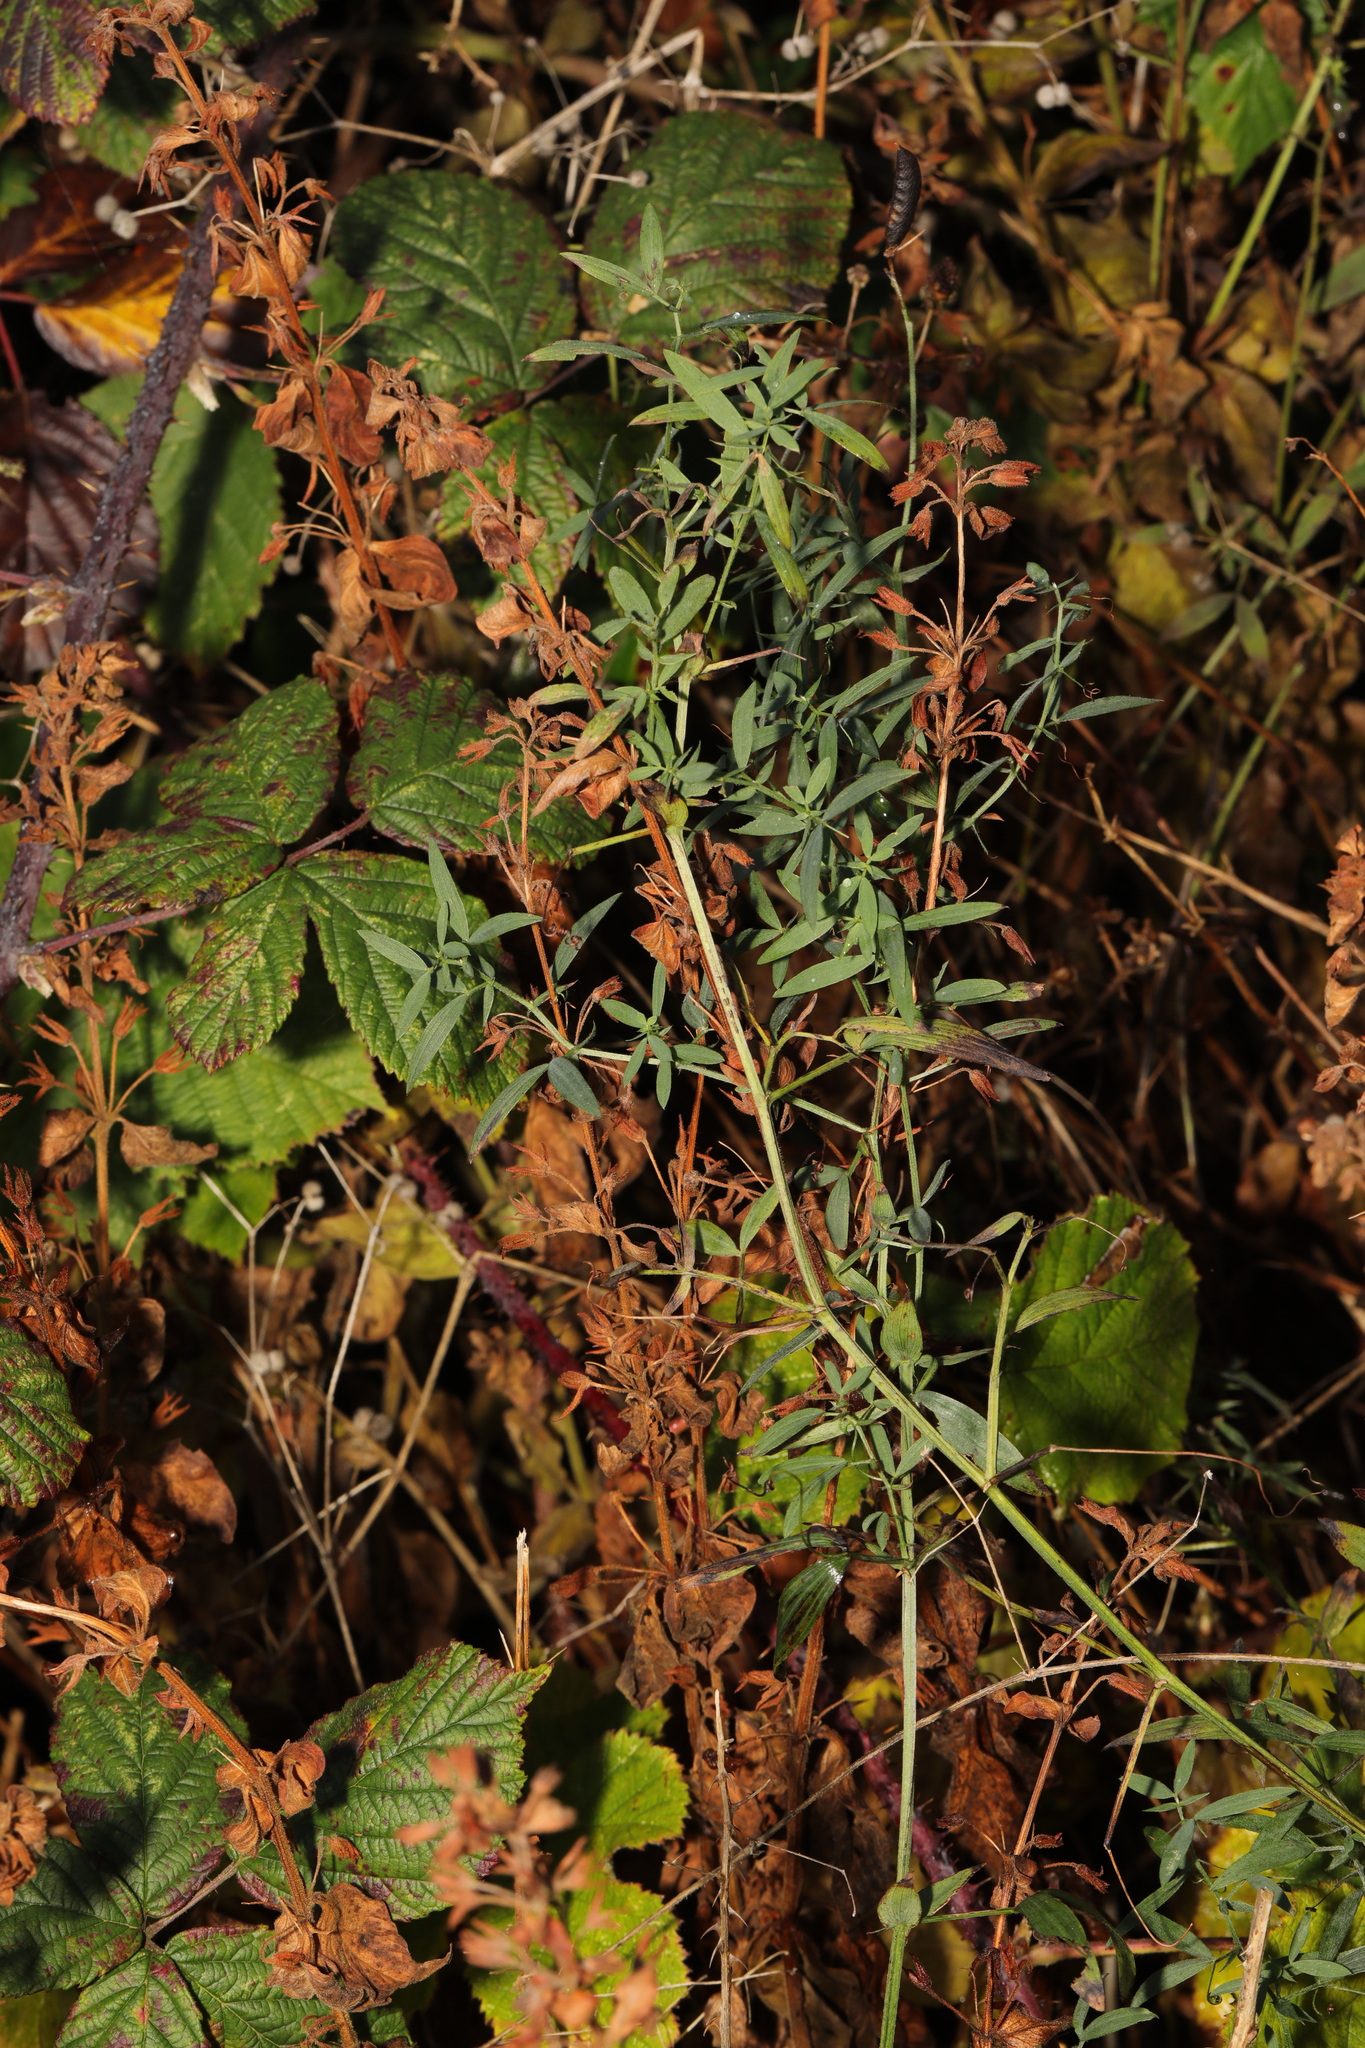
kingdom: Plantae
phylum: Tracheophyta
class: Magnoliopsida
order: Fabales
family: Fabaceae
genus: Lathyrus
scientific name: Lathyrus pratensis
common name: Meadow vetchling
